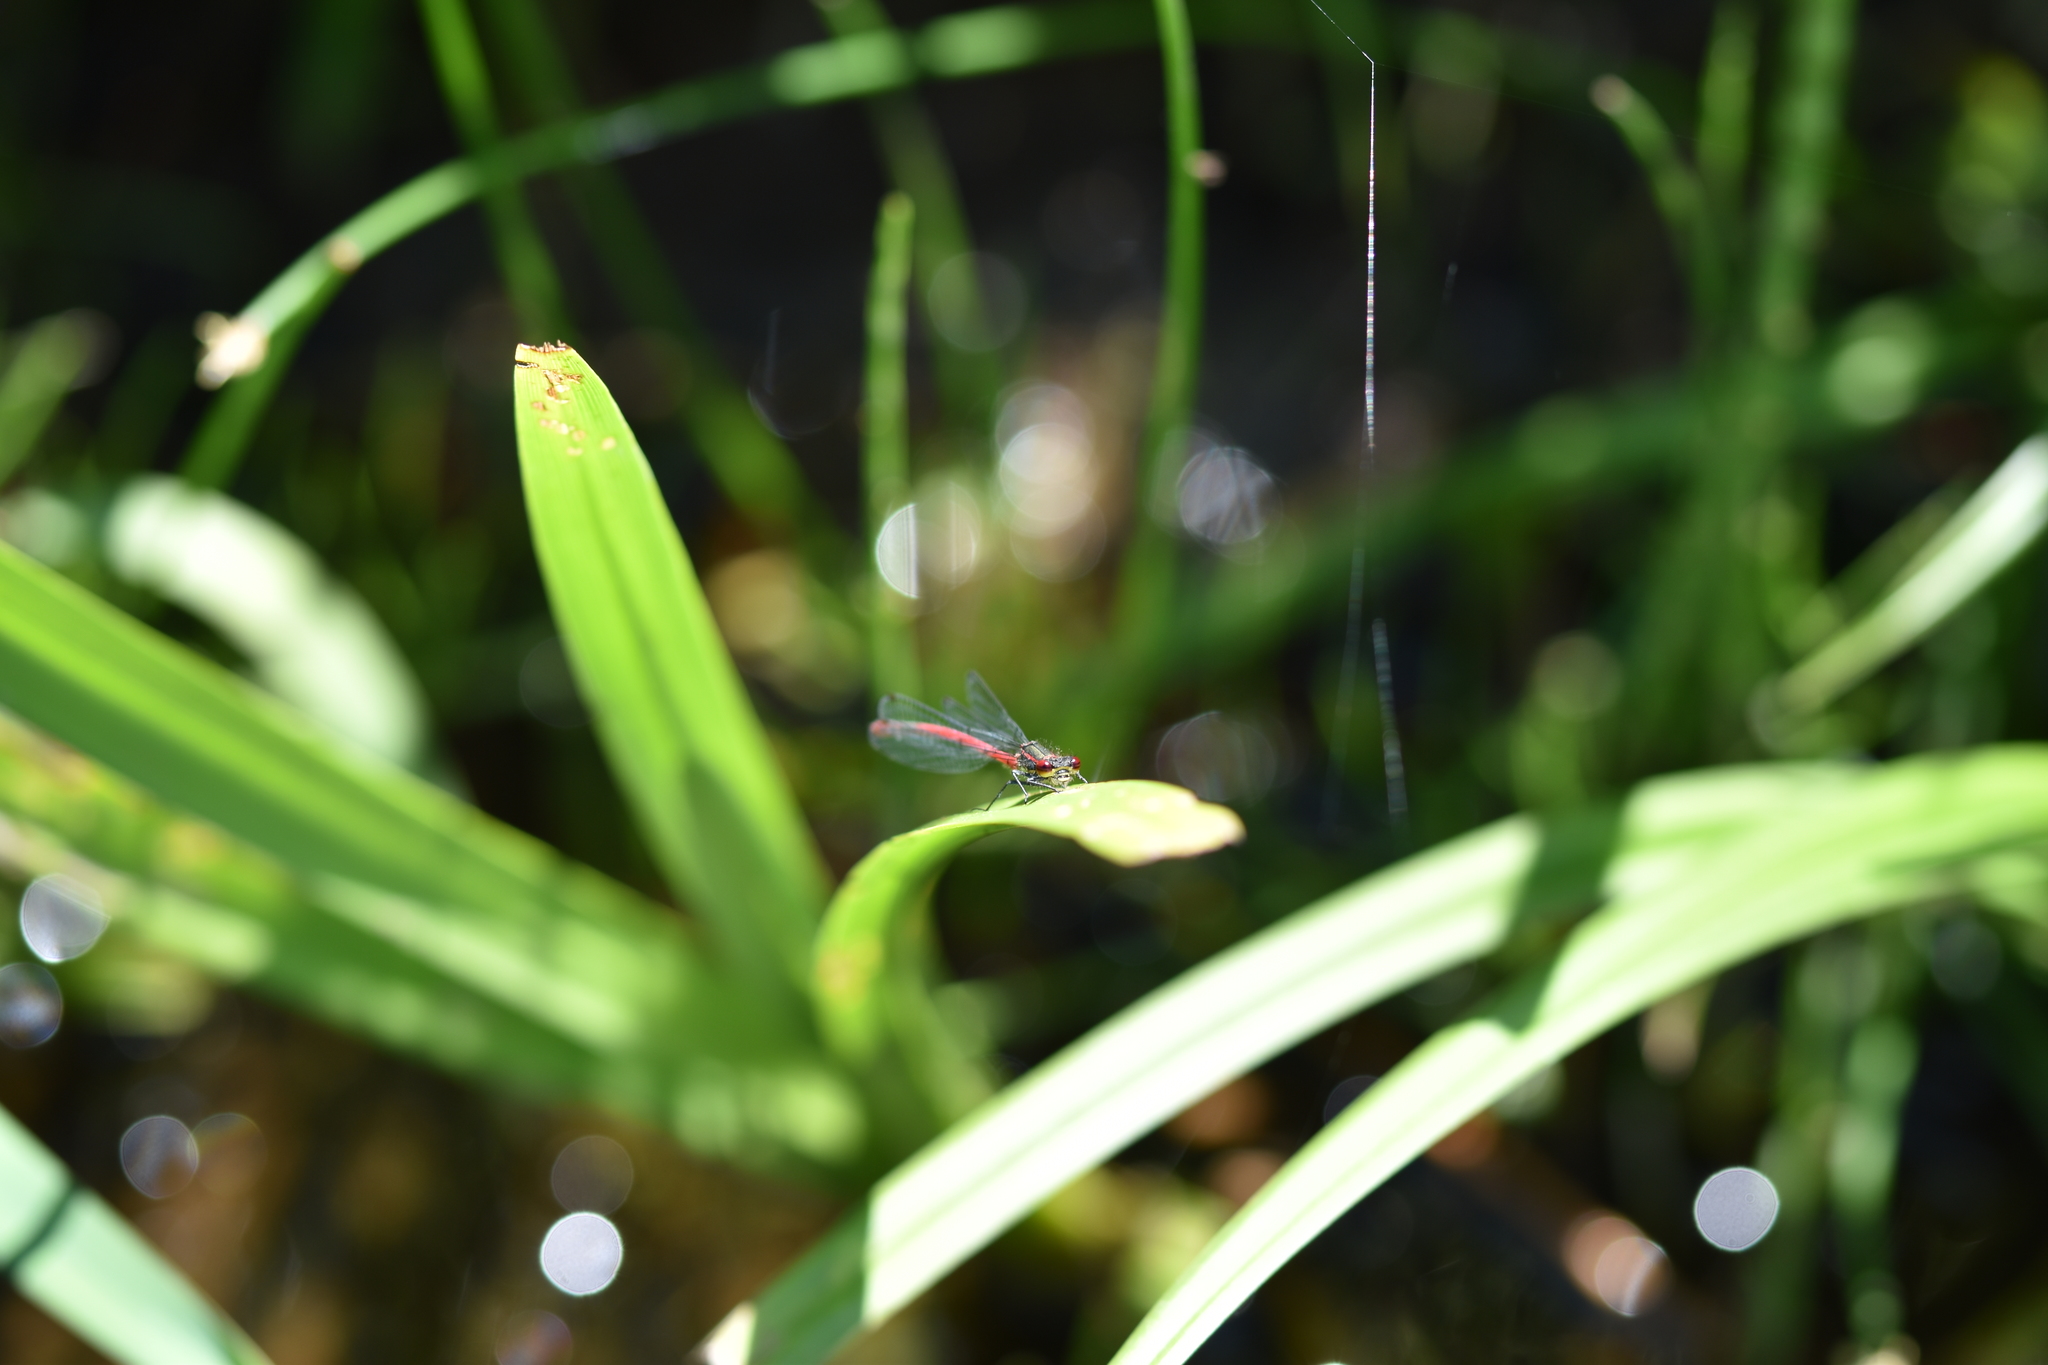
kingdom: Animalia
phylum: Arthropoda
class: Insecta
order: Odonata
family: Coenagrionidae
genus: Pyrrhosoma
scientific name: Pyrrhosoma nymphula
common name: Large red damsel
